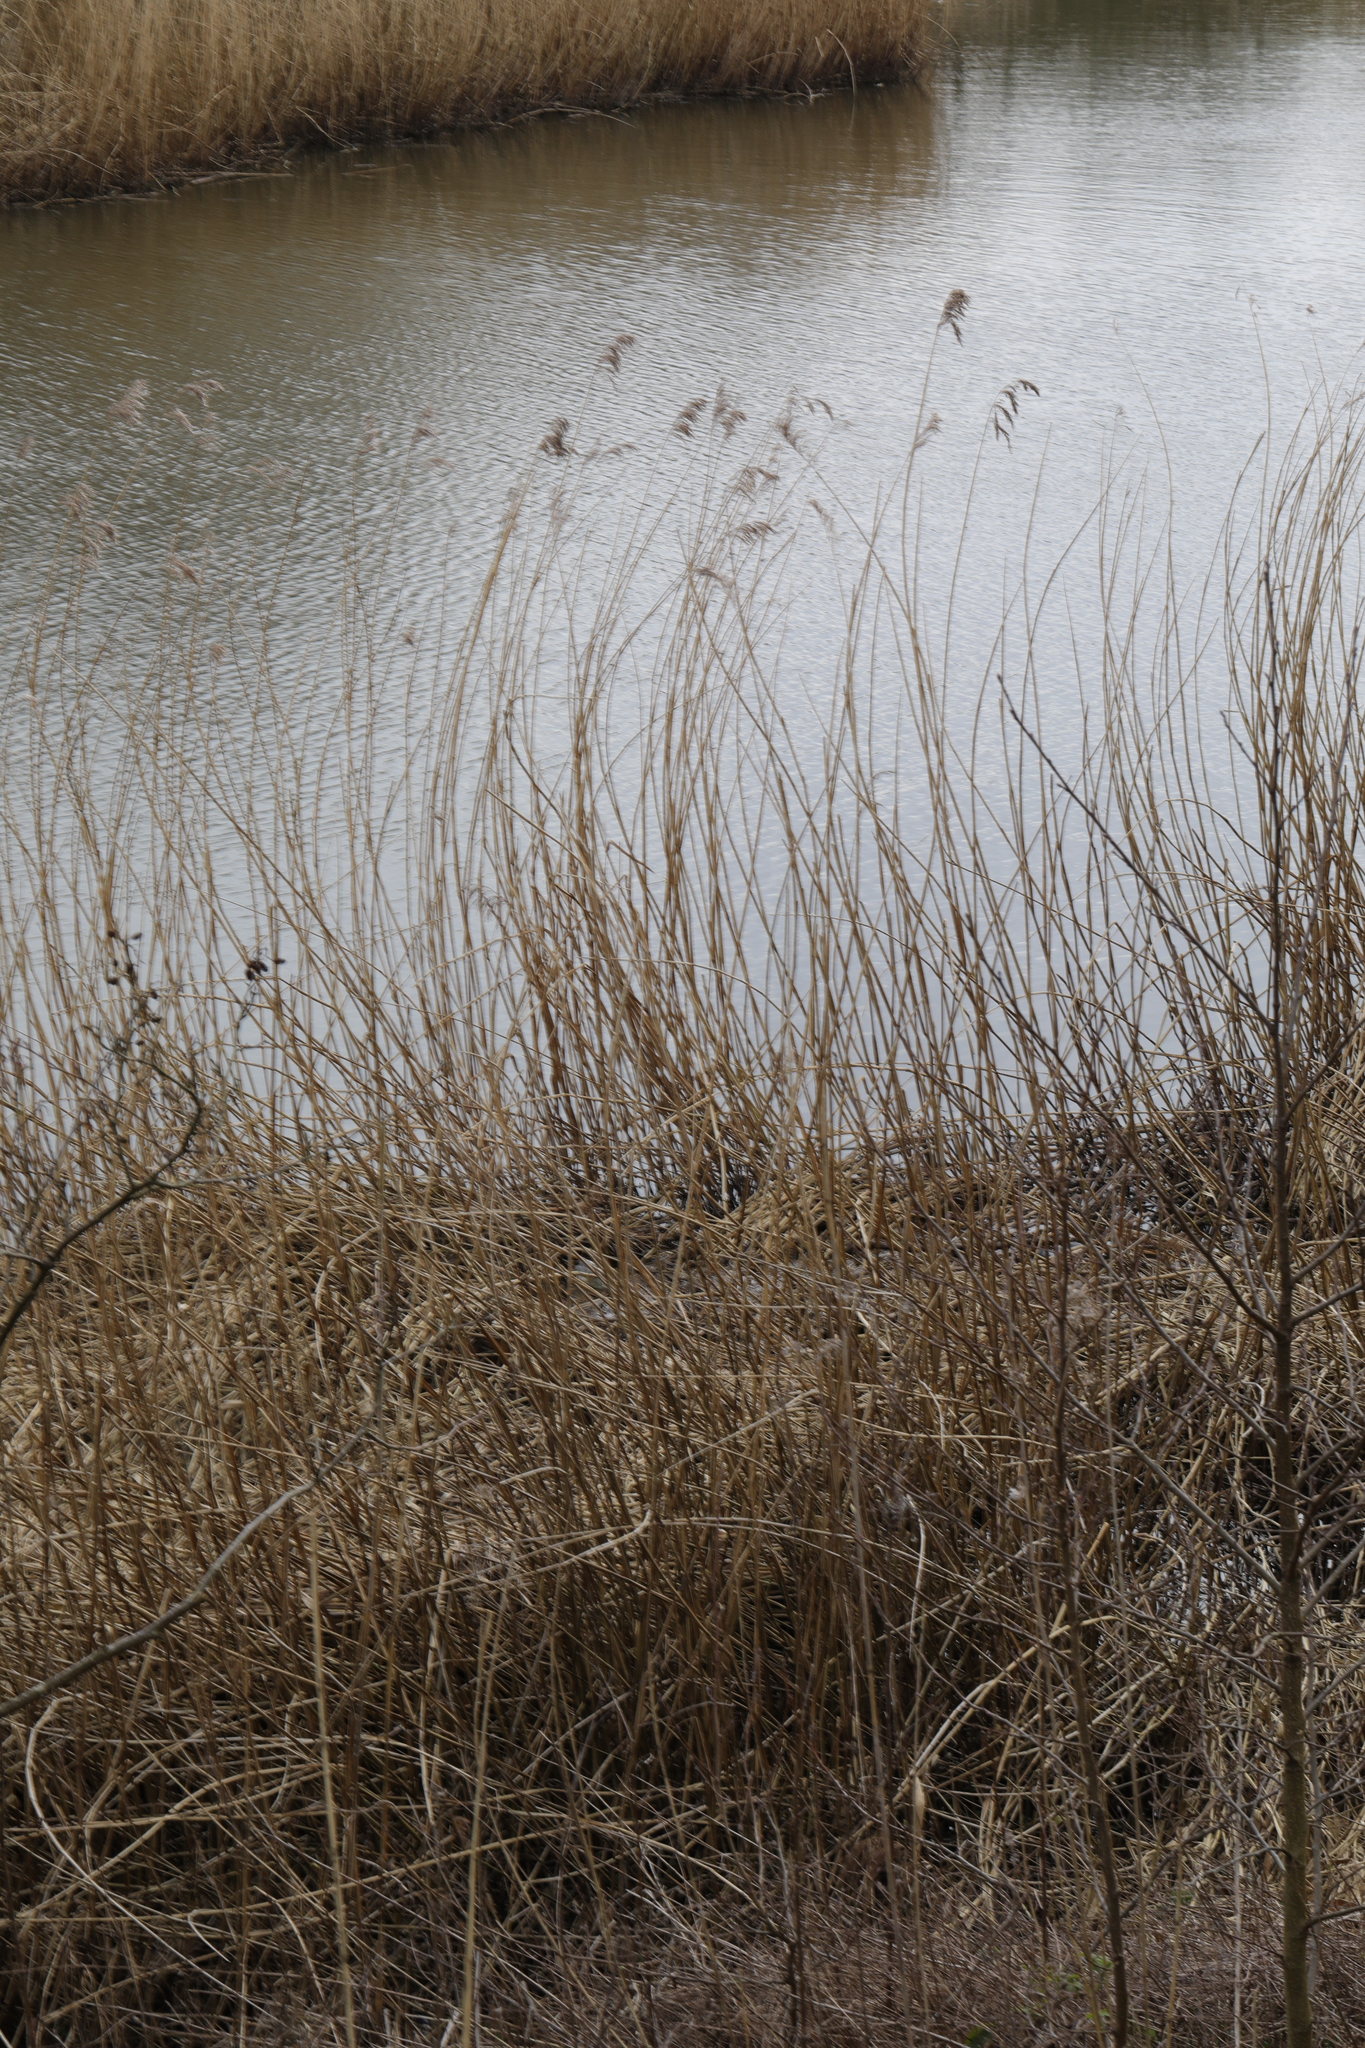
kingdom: Plantae
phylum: Tracheophyta
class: Liliopsida
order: Poales
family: Poaceae
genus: Phragmites
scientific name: Phragmites australis
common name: Common reed
